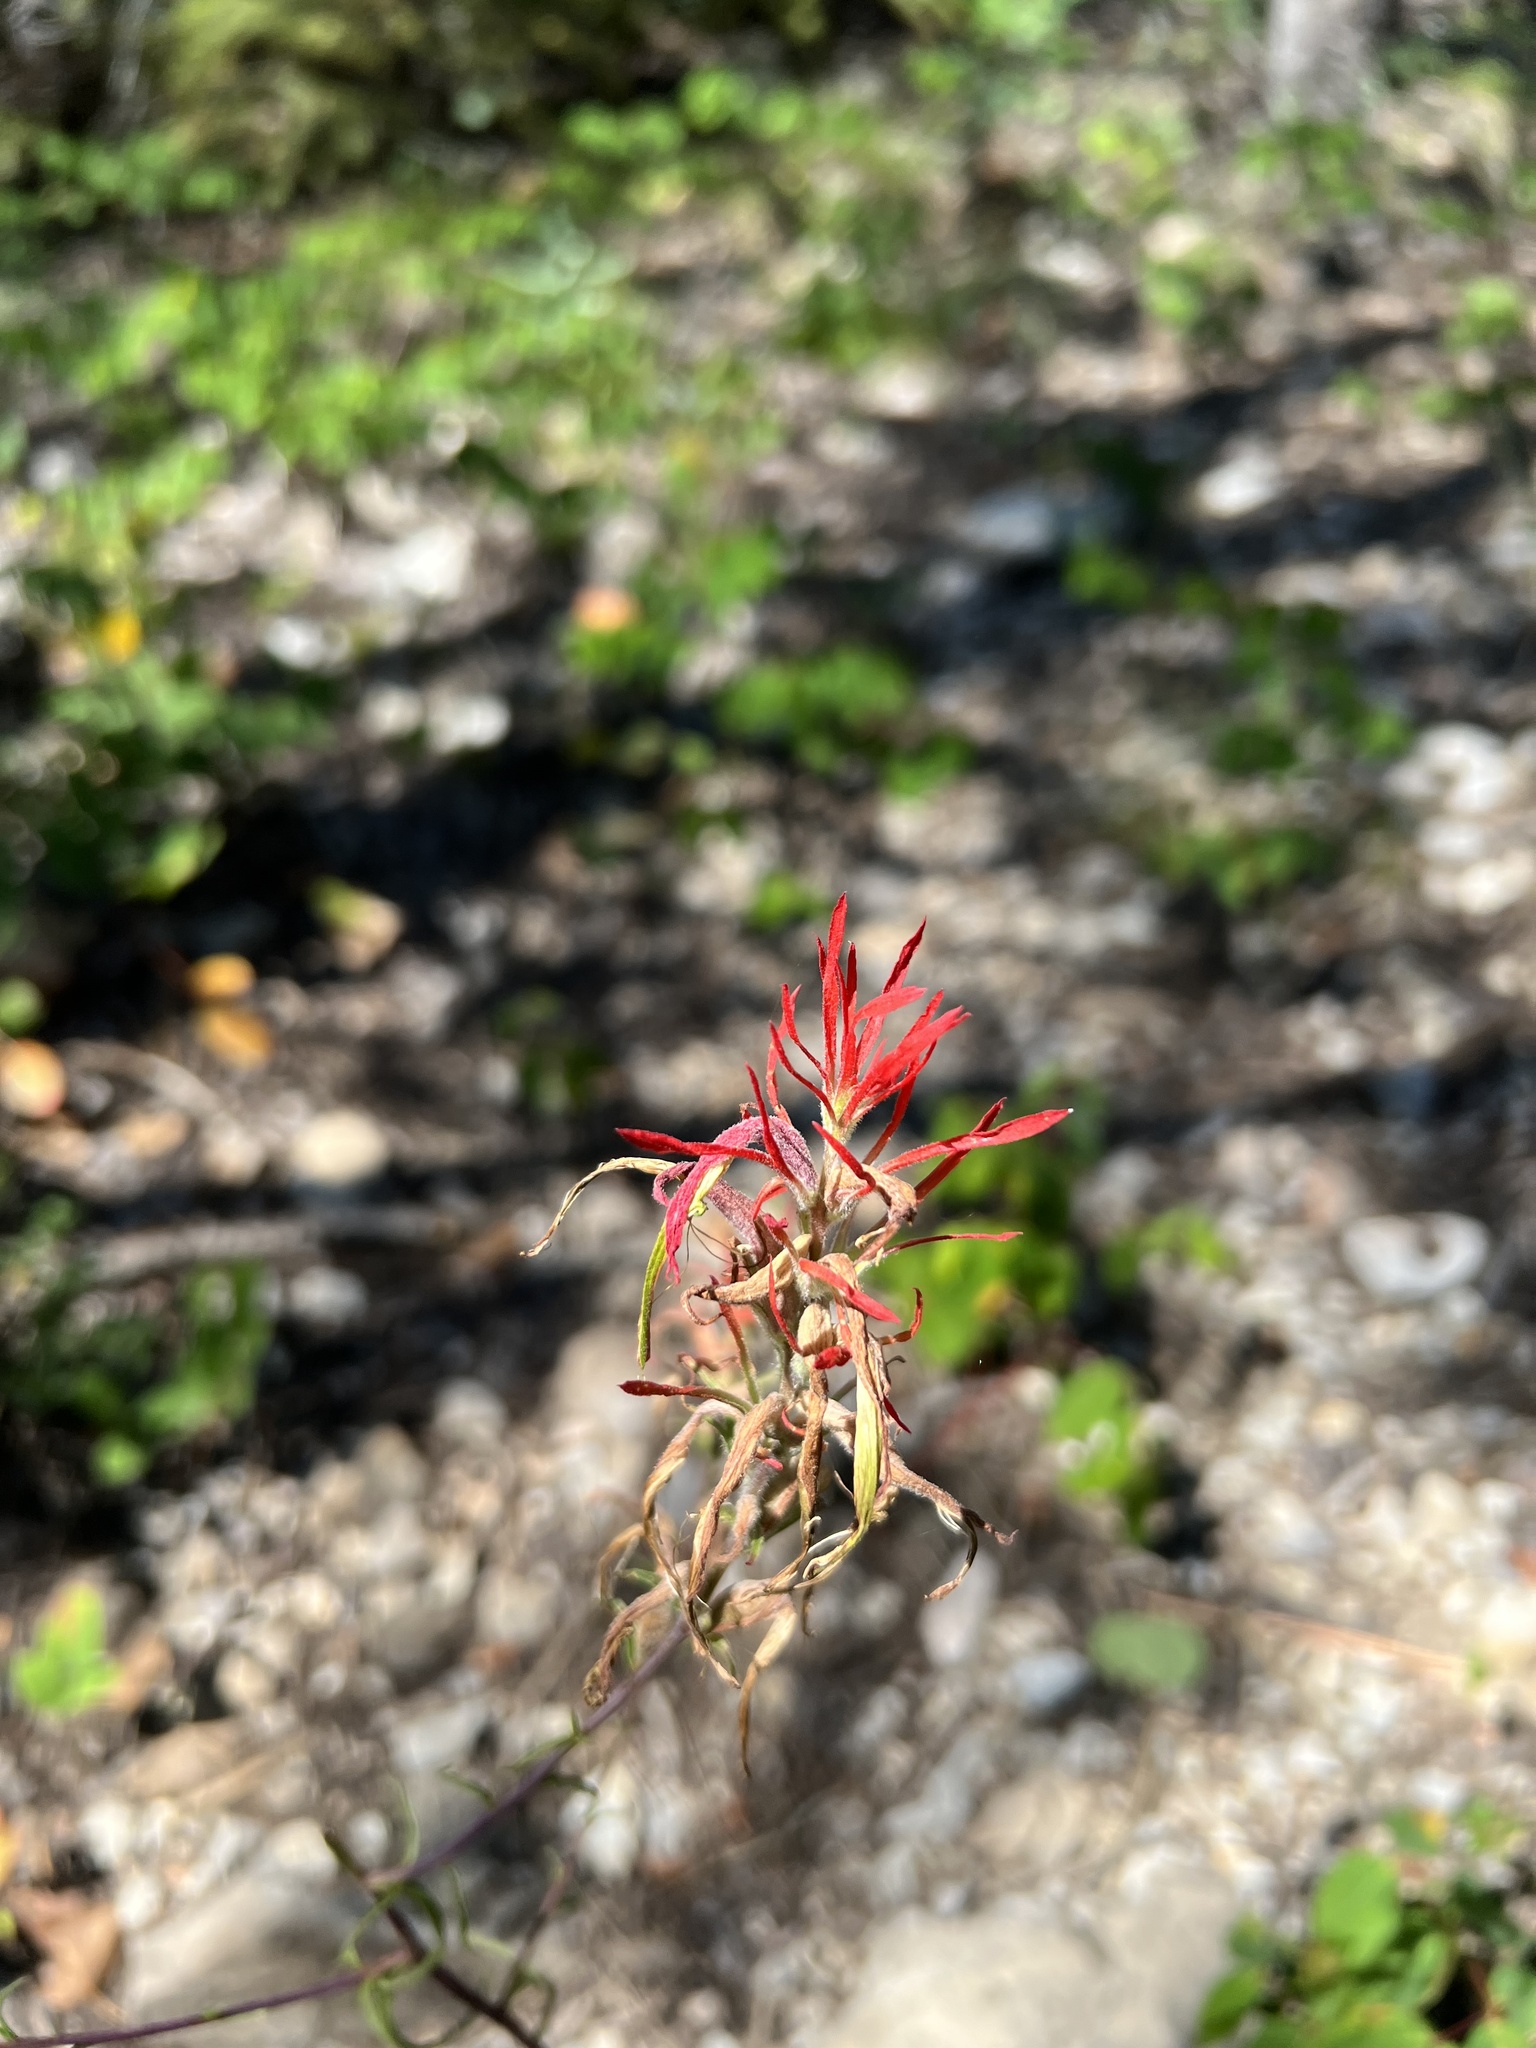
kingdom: Plantae
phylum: Tracheophyta
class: Magnoliopsida
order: Lamiales
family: Orobanchaceae
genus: Castilleja
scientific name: Castilleja linariifolia
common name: Wyoming paintbrush
